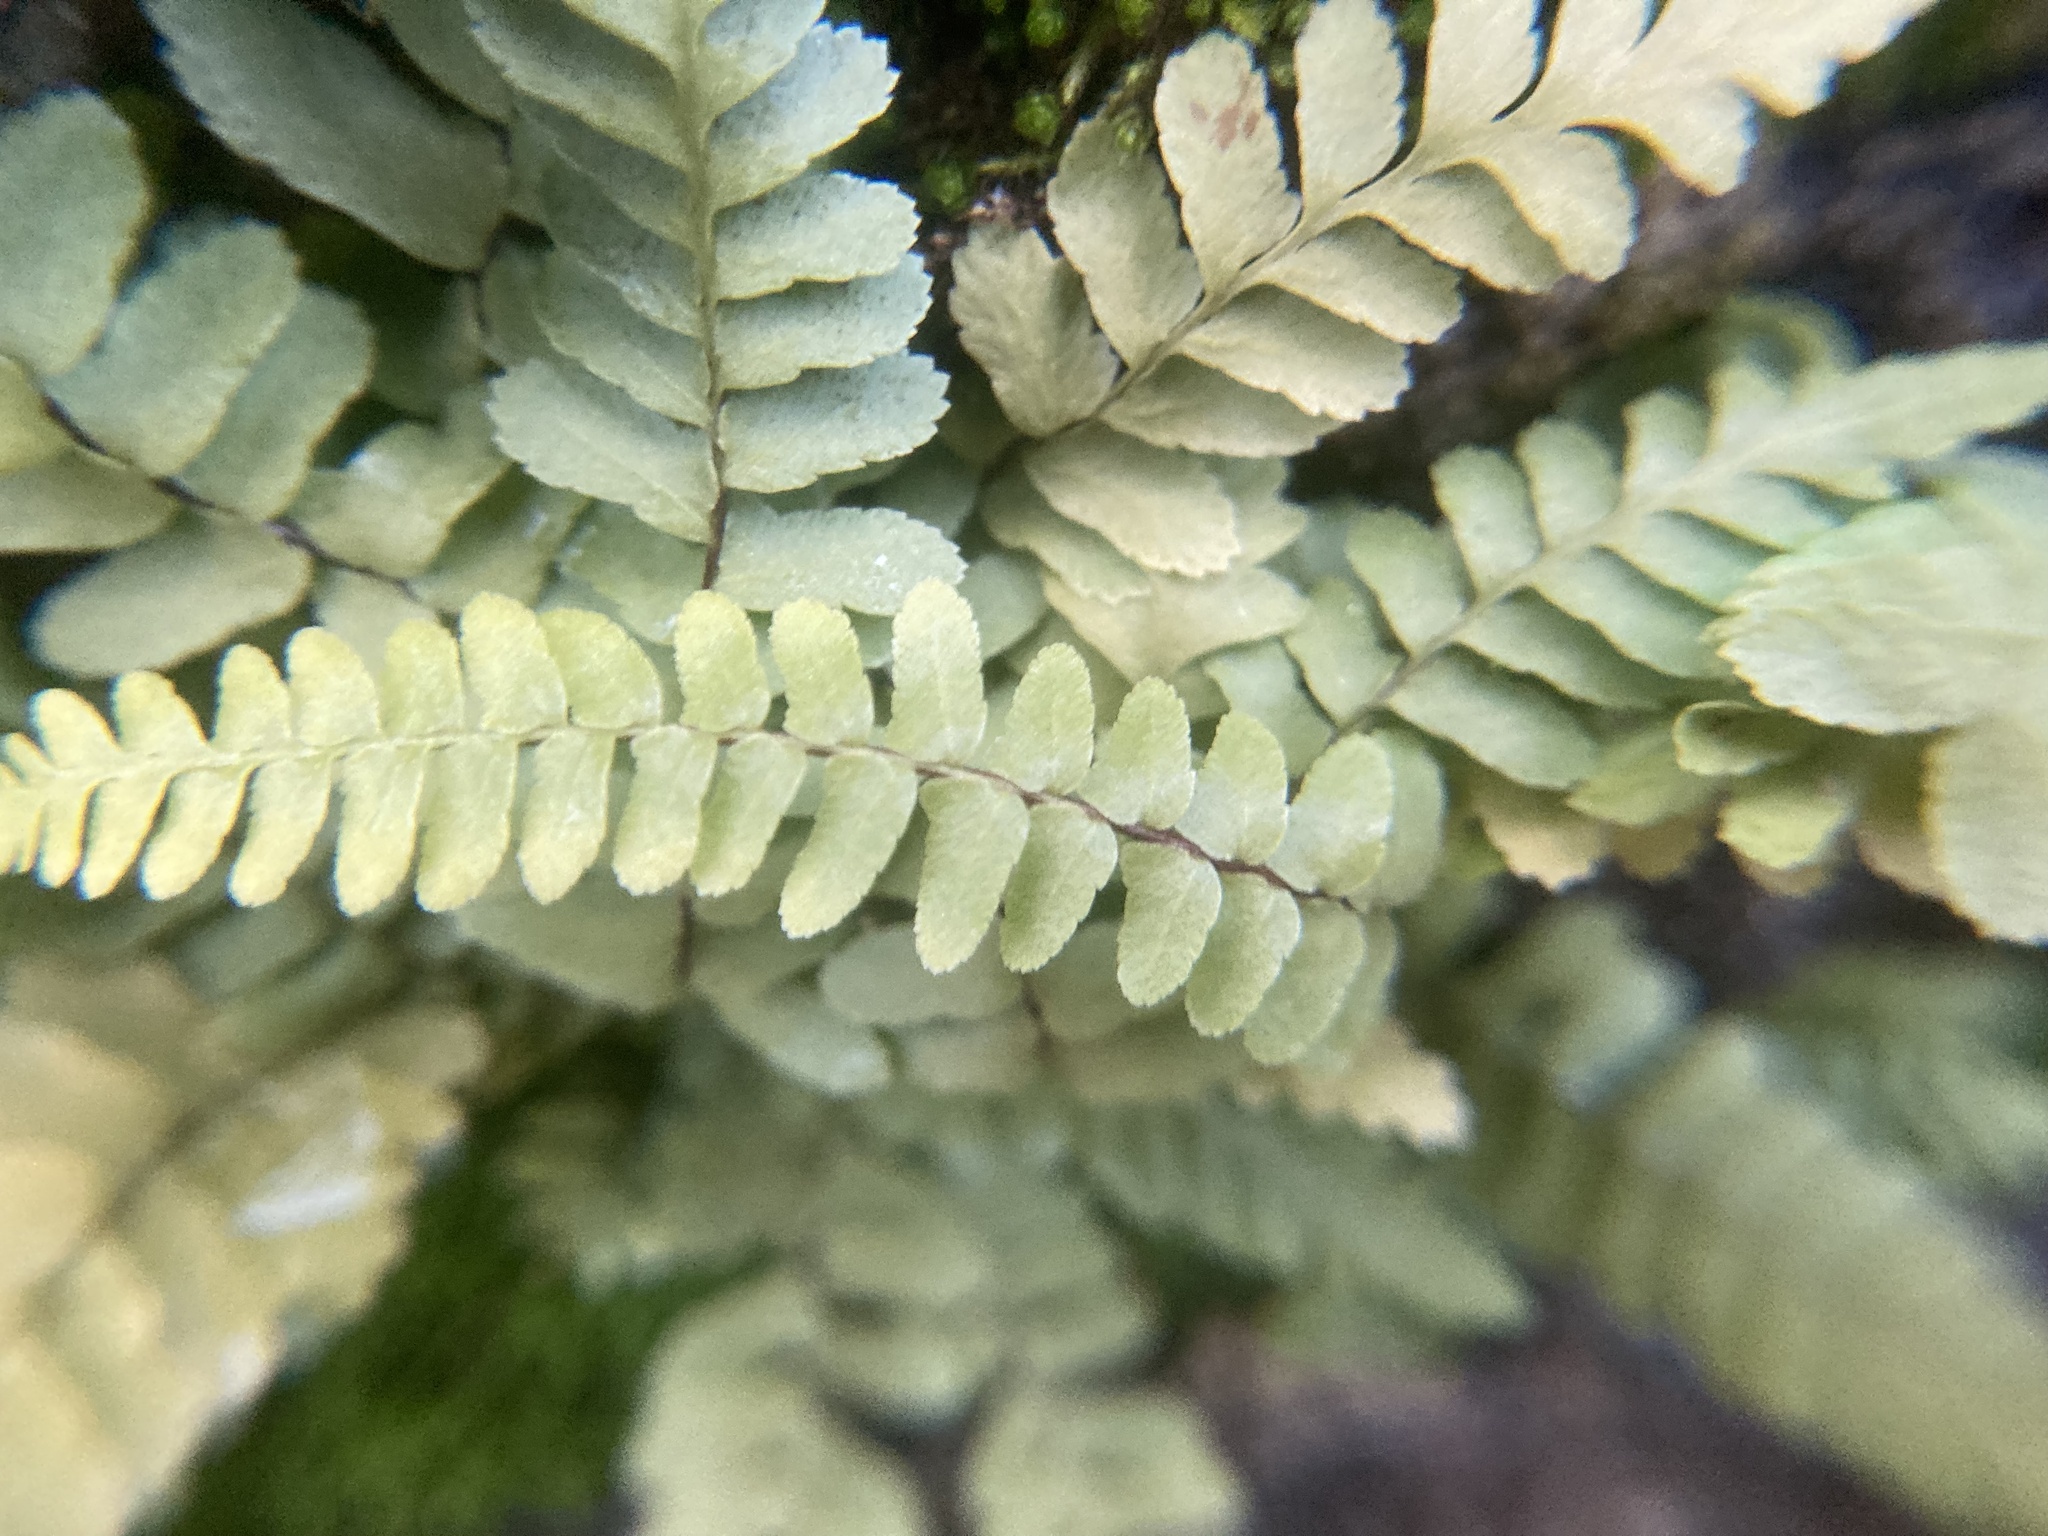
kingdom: Plantae
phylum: Tracheophyta
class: Polypodiopsida
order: Polypodiales
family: Aspleniaceae
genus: Asplenium
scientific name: Asplenium platyneuron
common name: Ebony spleenwort
